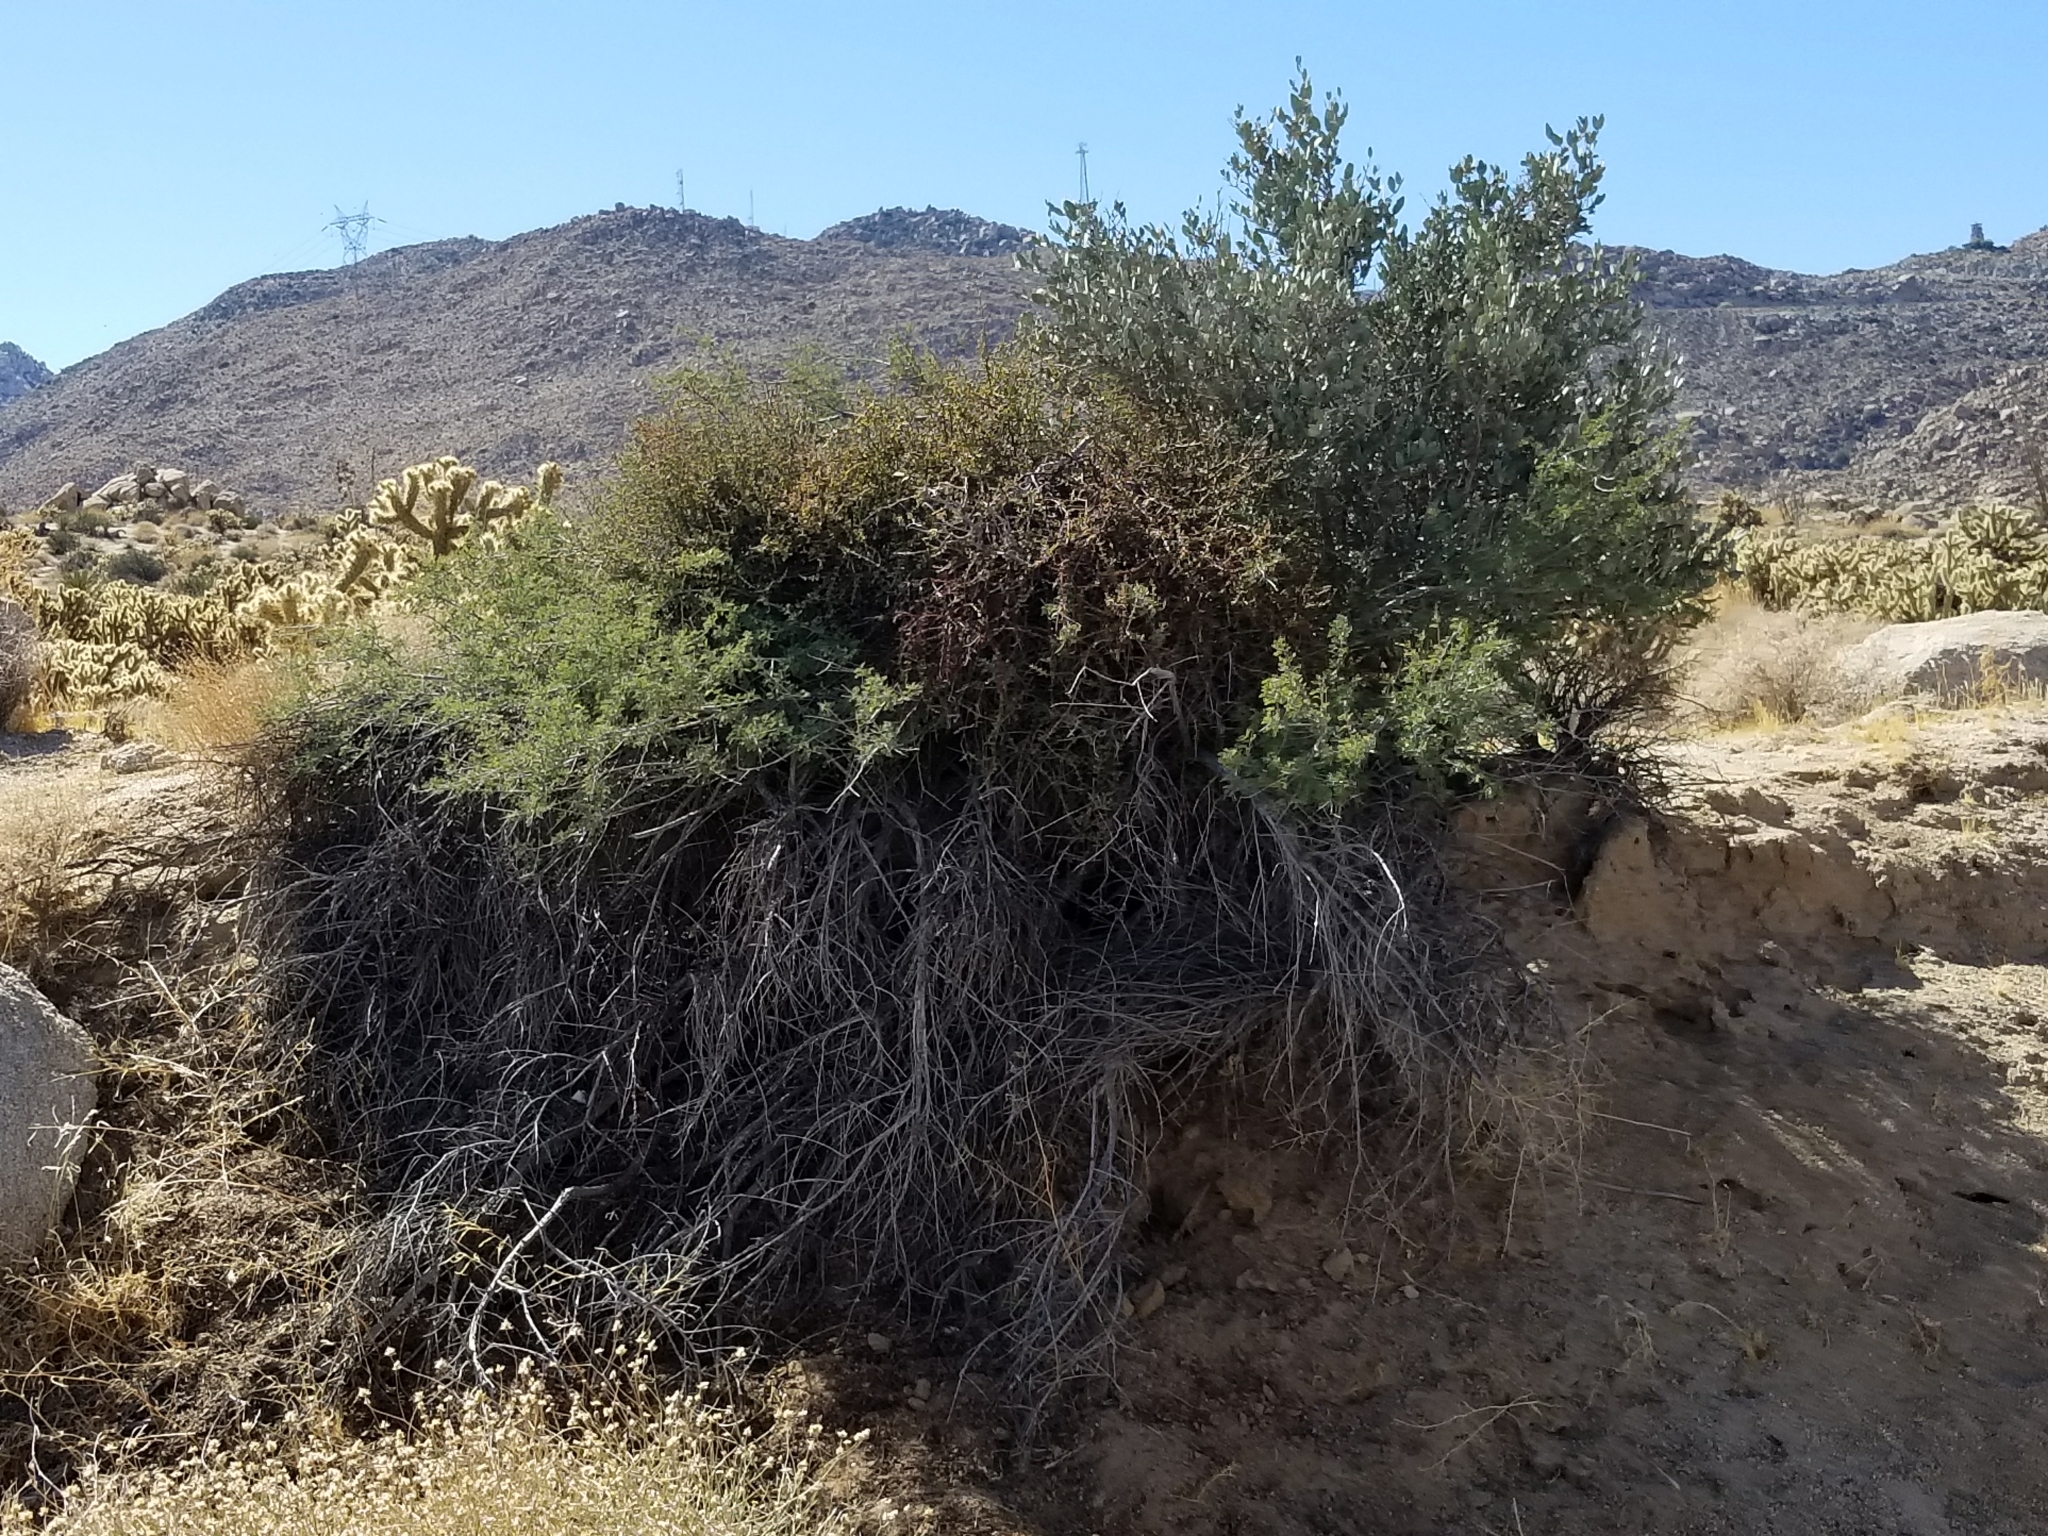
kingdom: Plantae
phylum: Tracheophyta
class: Magnoliopsida
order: Fabales
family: Fabaceae
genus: Senegalia
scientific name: Senegalia greggii
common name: Texas-mimosa
